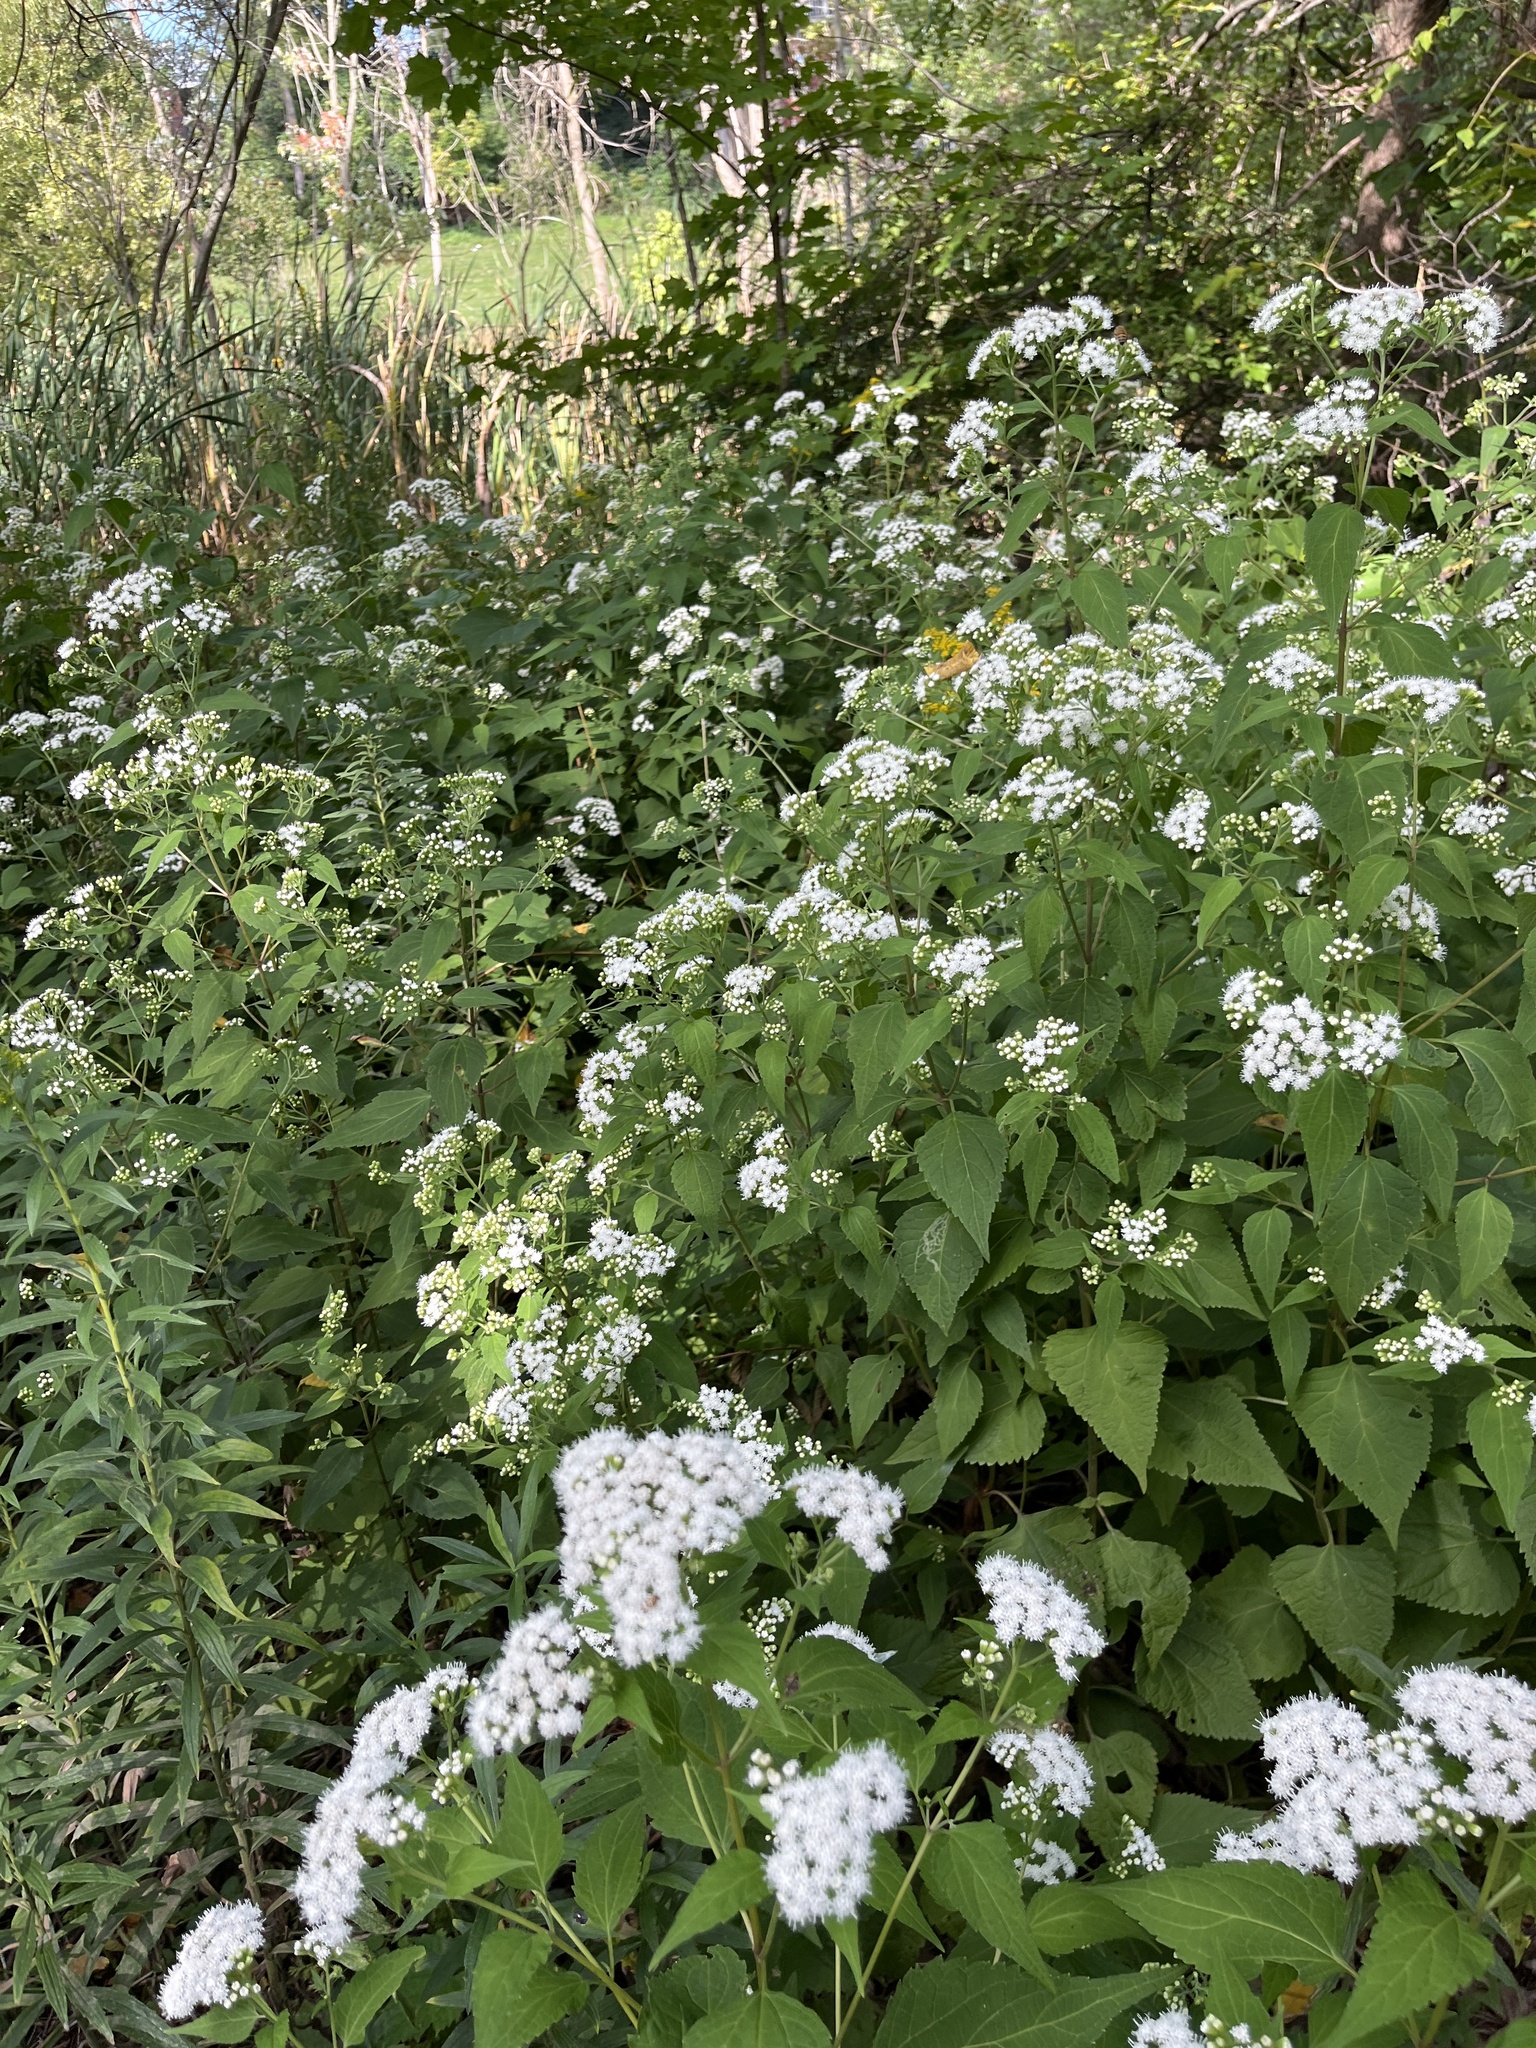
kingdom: Plantae
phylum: Tracheophyta
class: Magnoliopsida
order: Asterales
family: Asteraceae
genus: Ageratina
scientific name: Ageratina altissima
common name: White snakeroot
